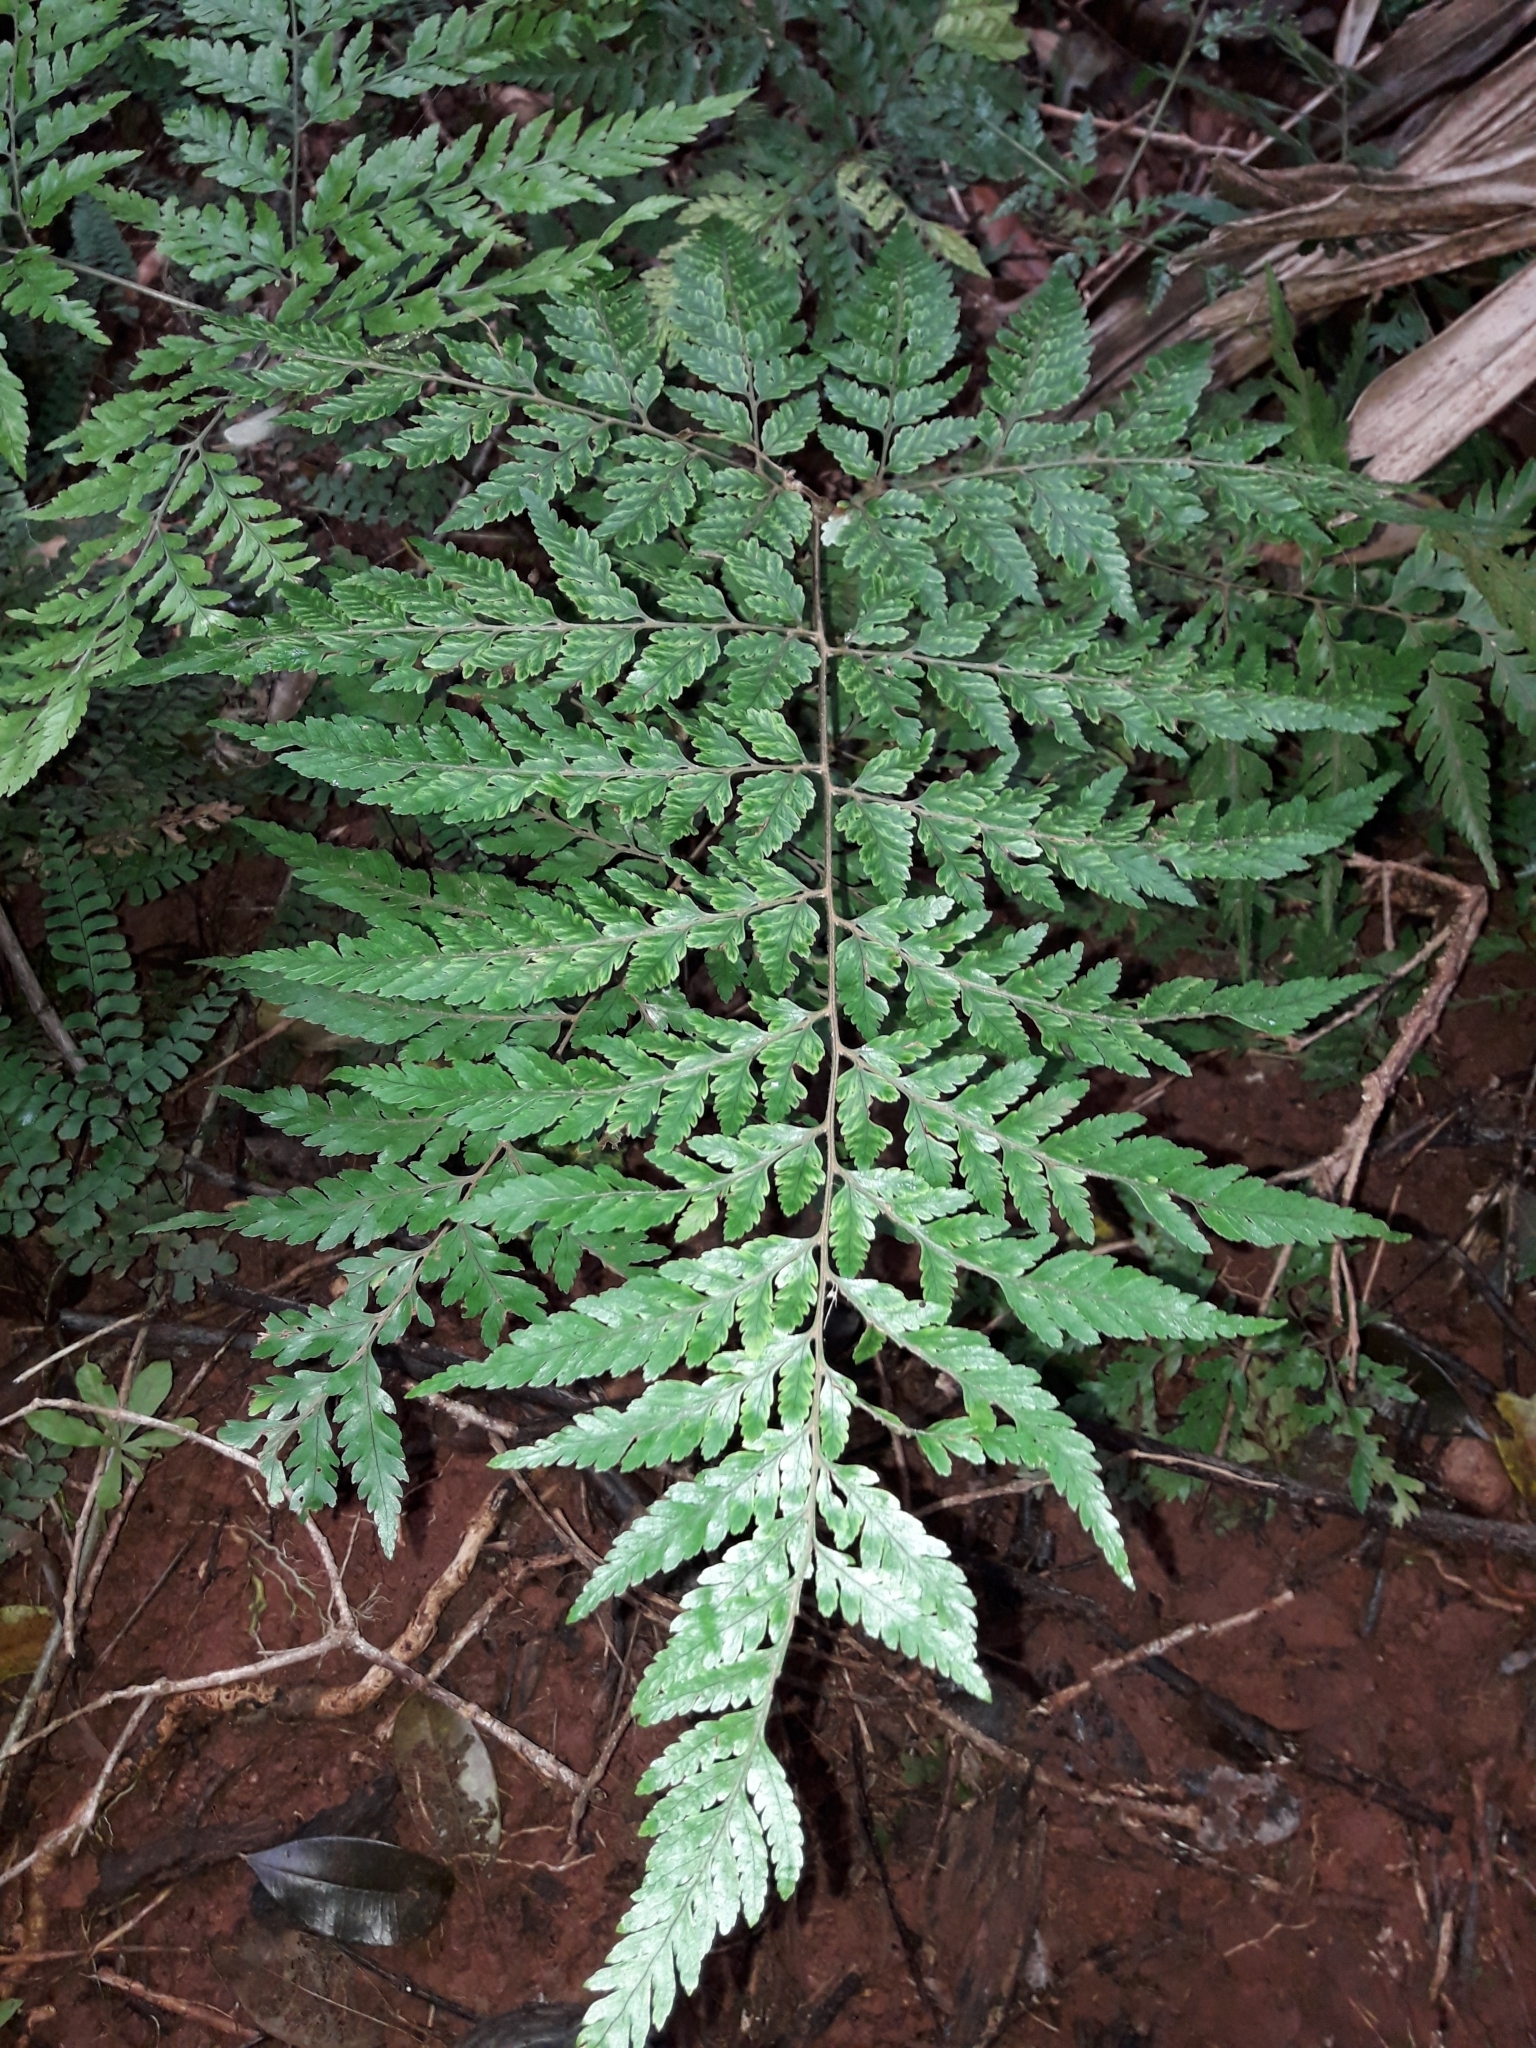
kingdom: Plantae
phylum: Tracheophyta
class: Polypodiopsida
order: Polypodiales
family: Dryopteridaceae
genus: Parapolystichum
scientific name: Parapolystichum calanthum
